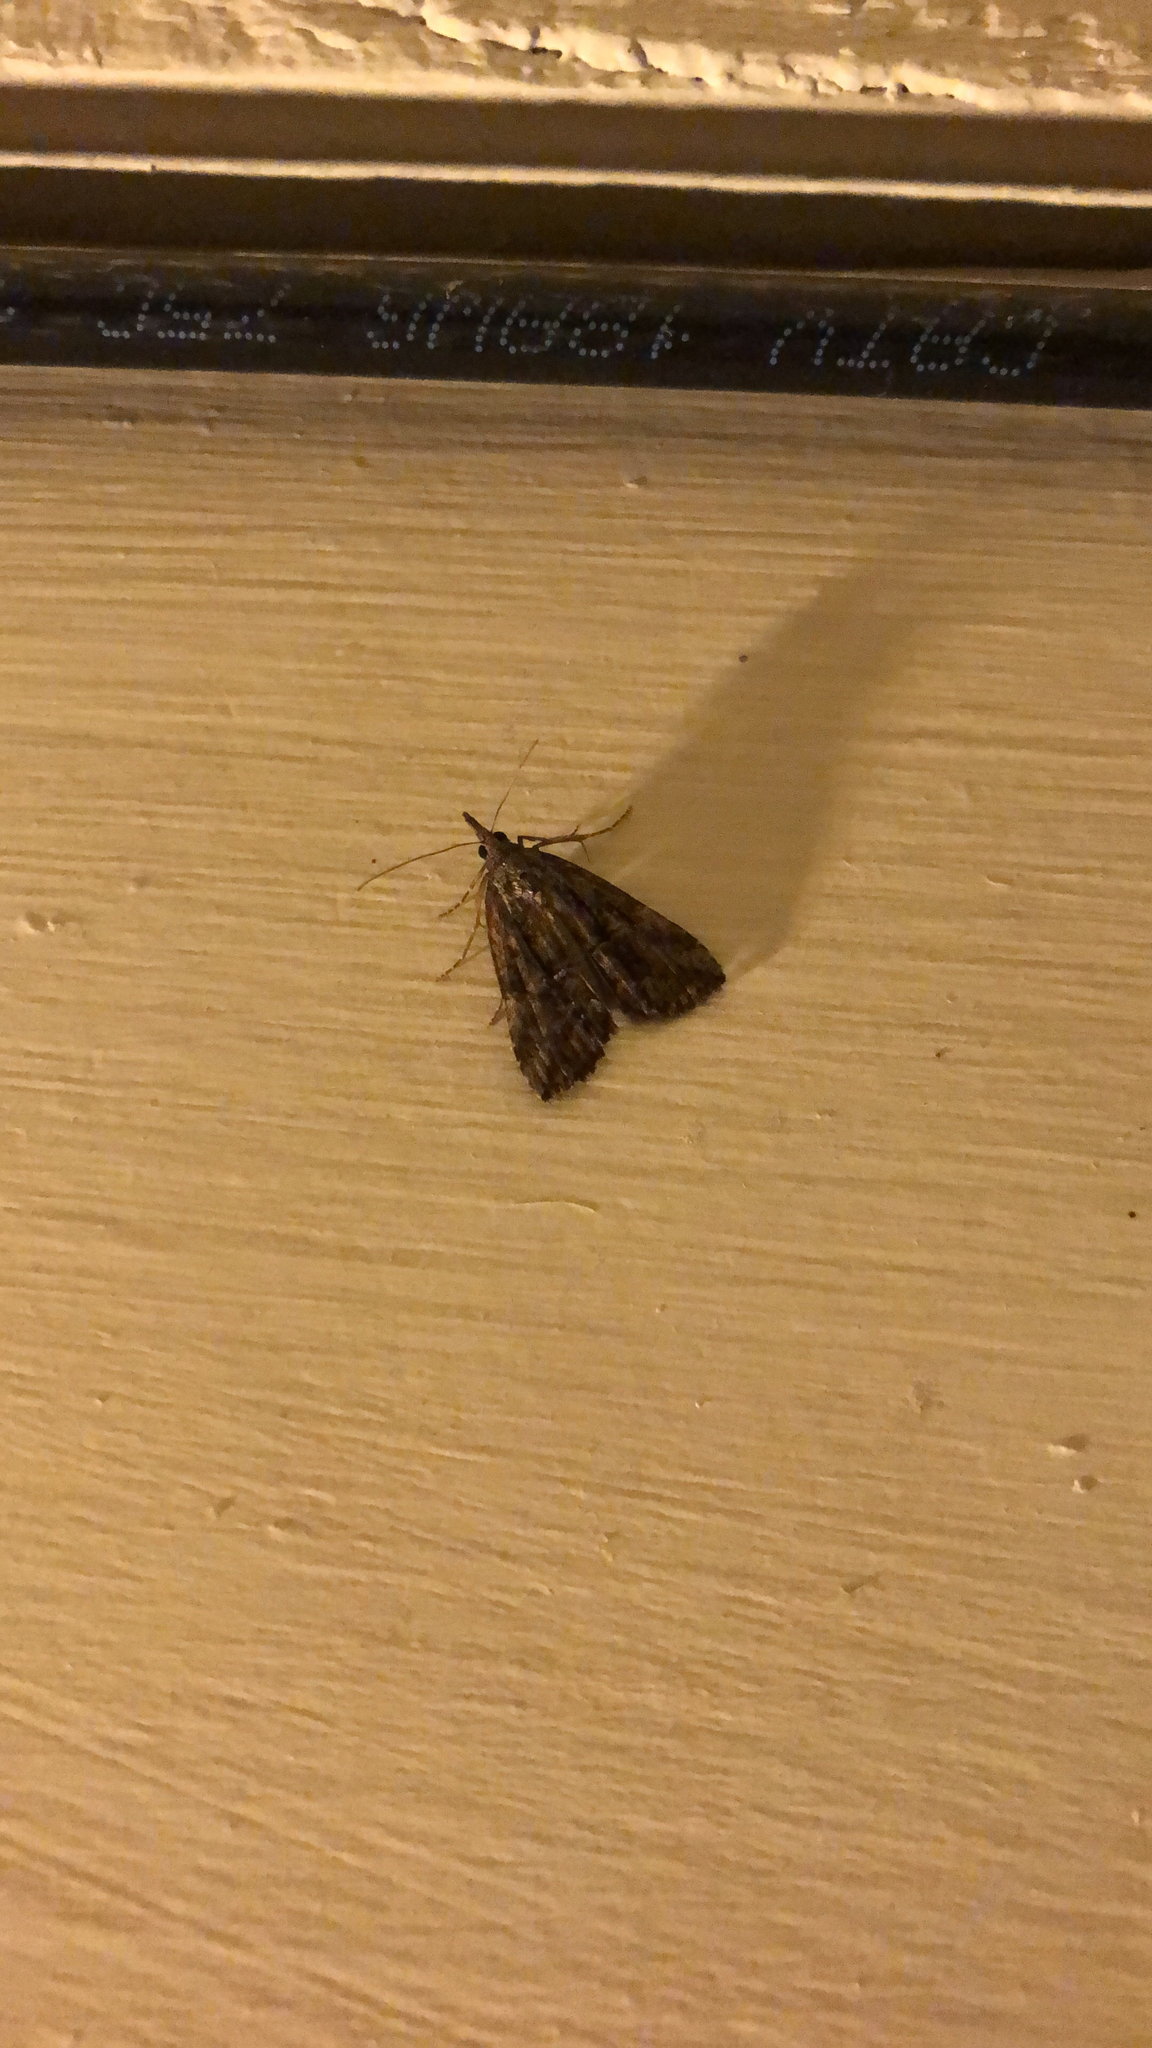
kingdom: Animalia
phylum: Arthropoda
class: Insecta
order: Lepidoptera
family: Erebidae
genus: Hypena
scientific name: Hypena scabra
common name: Green cloverworm
